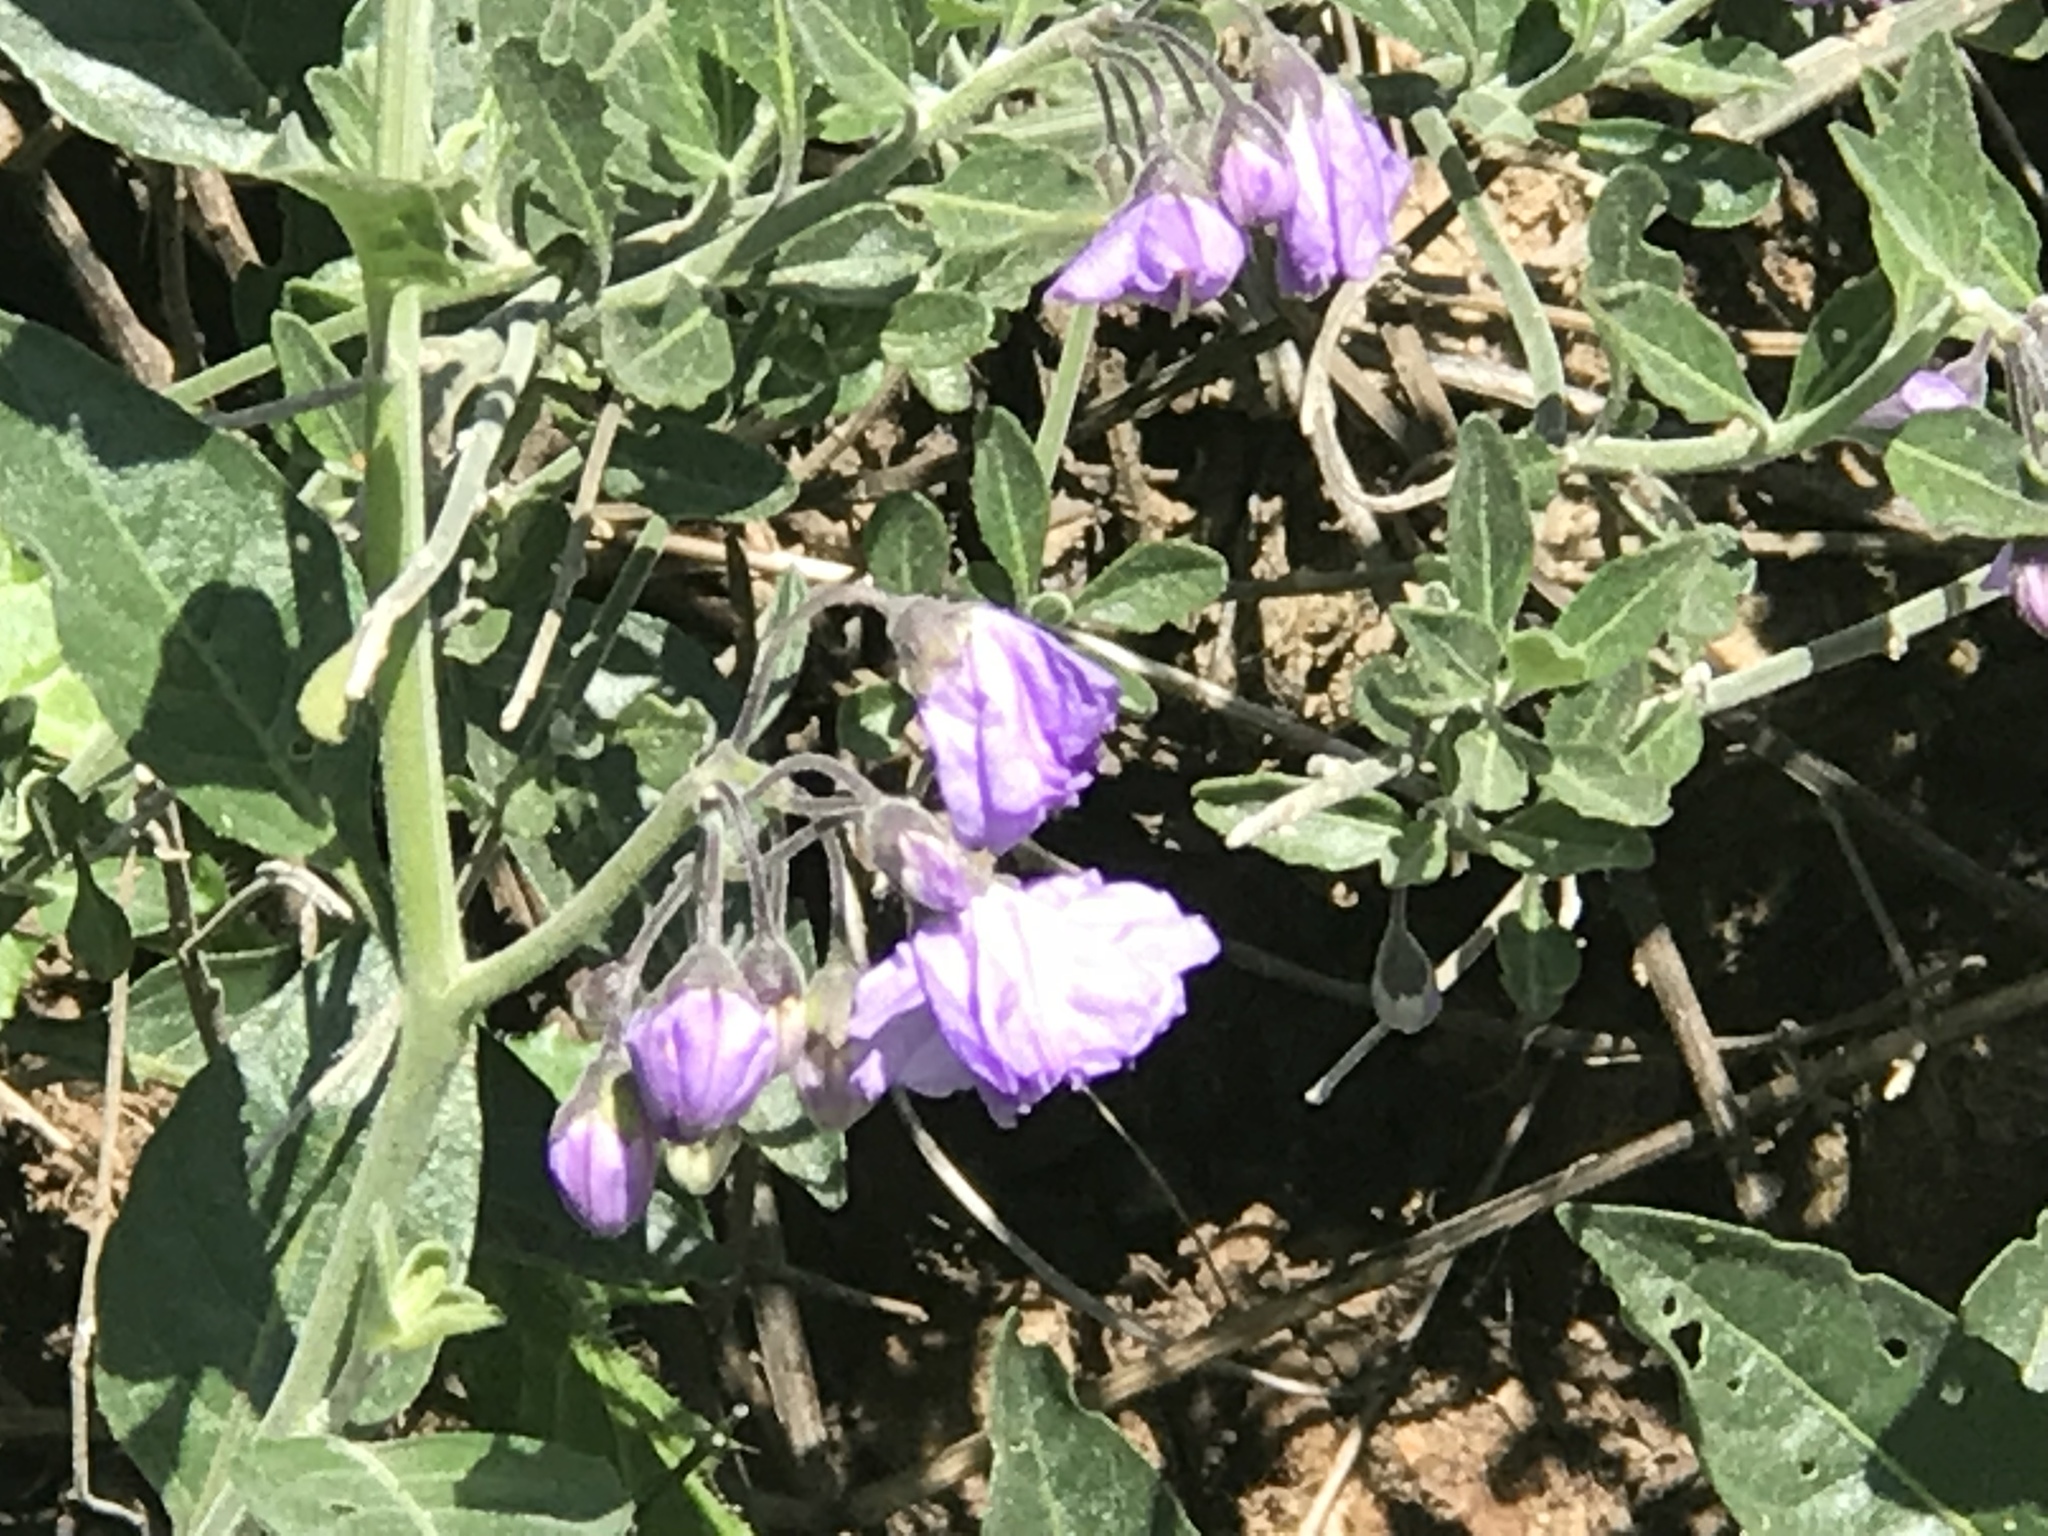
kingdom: Plantae
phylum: Tracheophyta
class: Magnoliopsida
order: Solanales
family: Solanaceae
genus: Solanum
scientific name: Solanum umbelliferum
